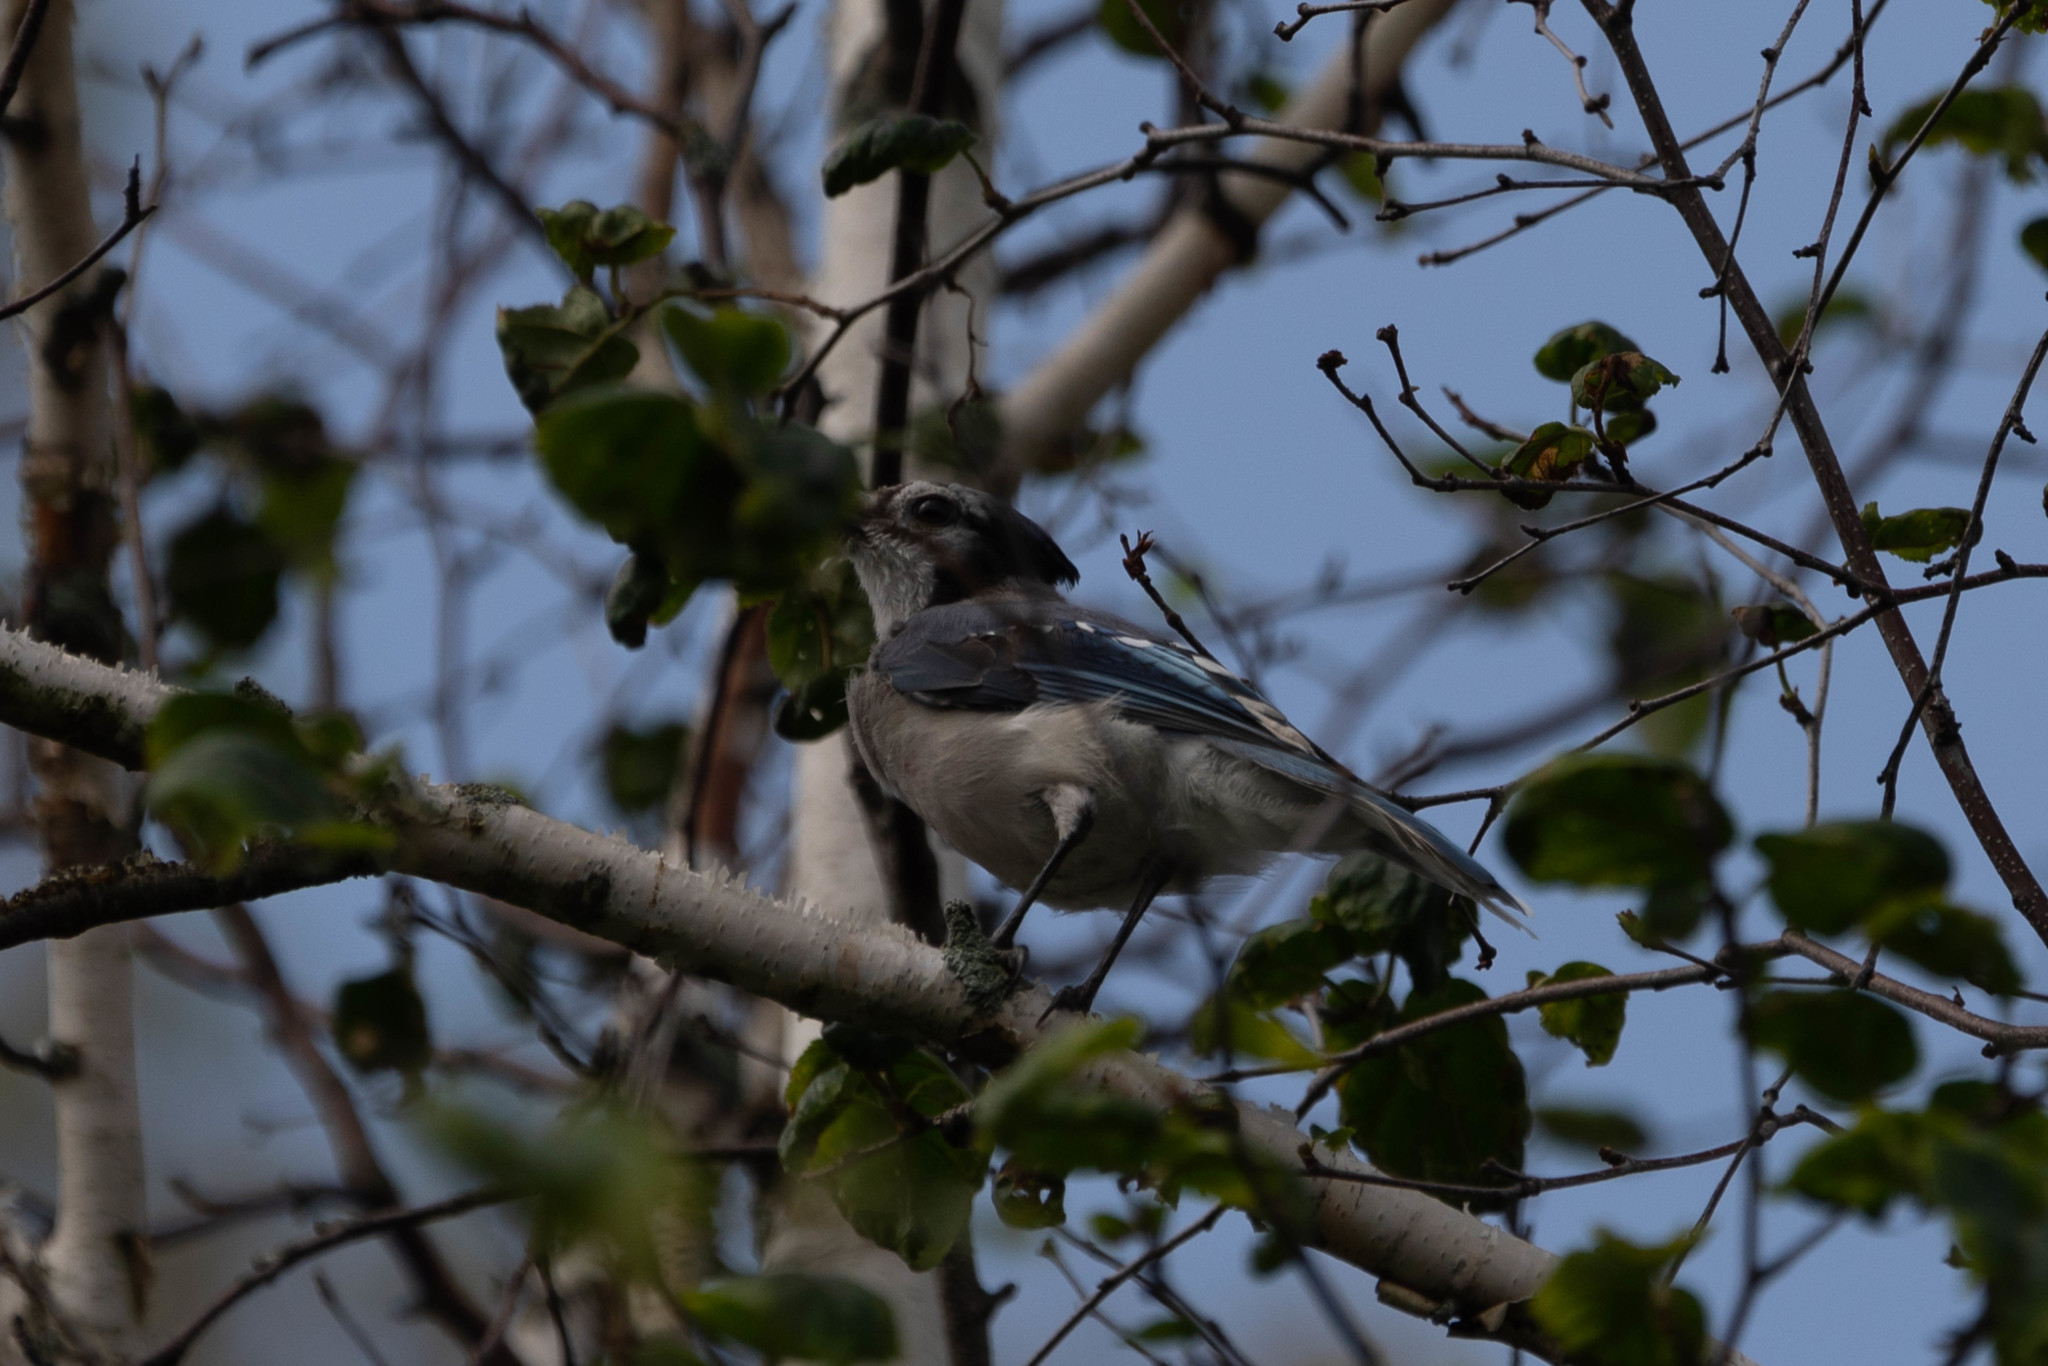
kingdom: Animalia
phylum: Chordata
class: Aves
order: Passeriformes
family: Corvidae
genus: Cyanocitta
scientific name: Cyanocitta cristata
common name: Blue jay
